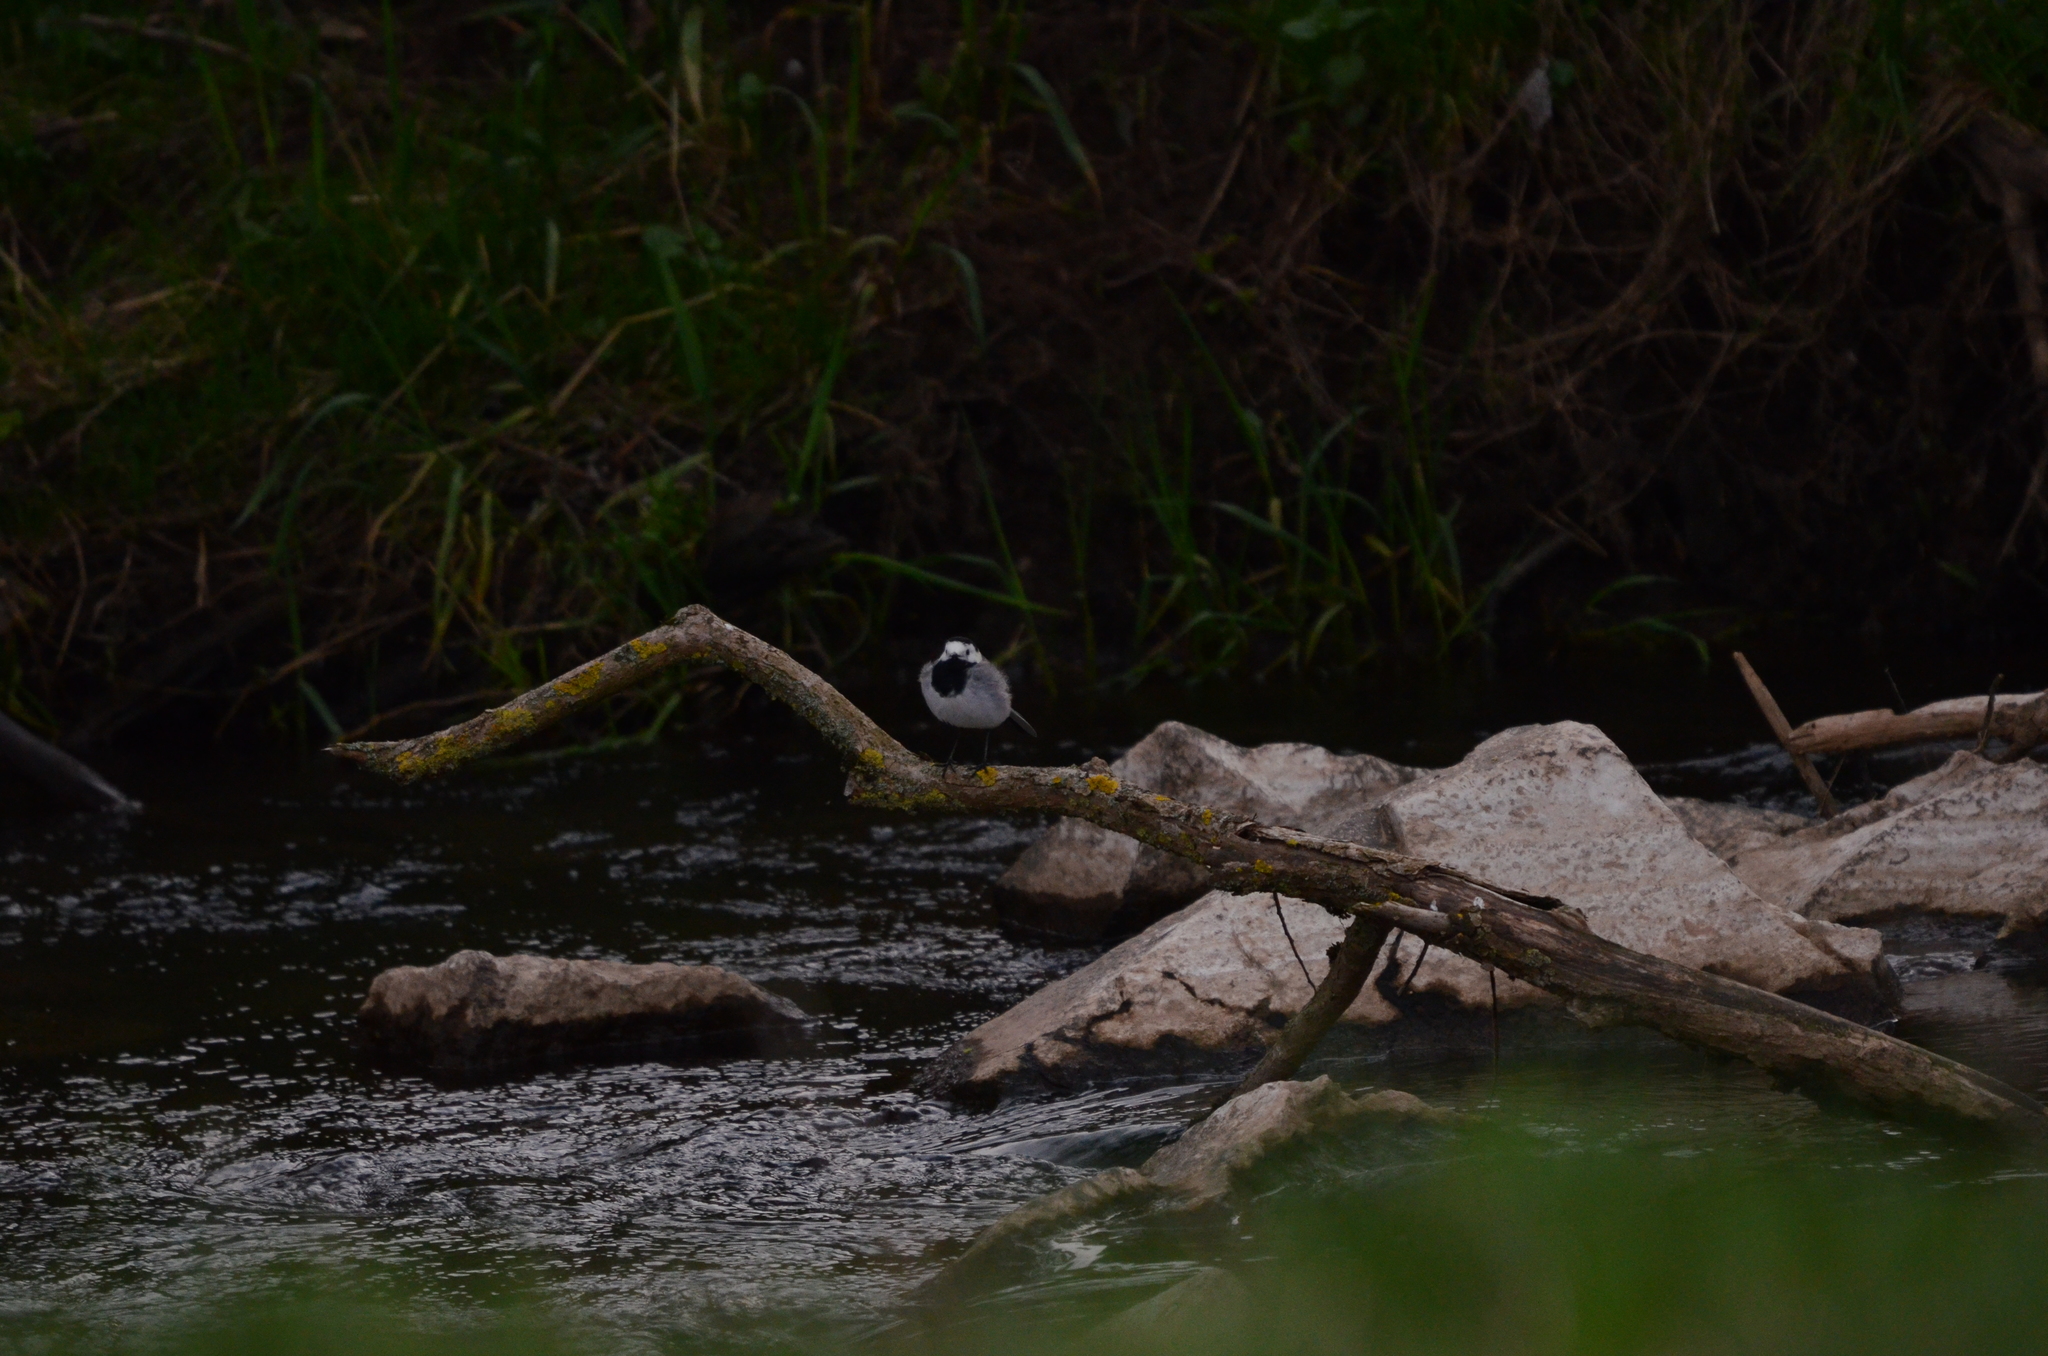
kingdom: Animalia
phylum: Chordata
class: Aves
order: Passeriformes
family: Motacillidae
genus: Motacilla
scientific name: Motacilla alba
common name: White wagtail
